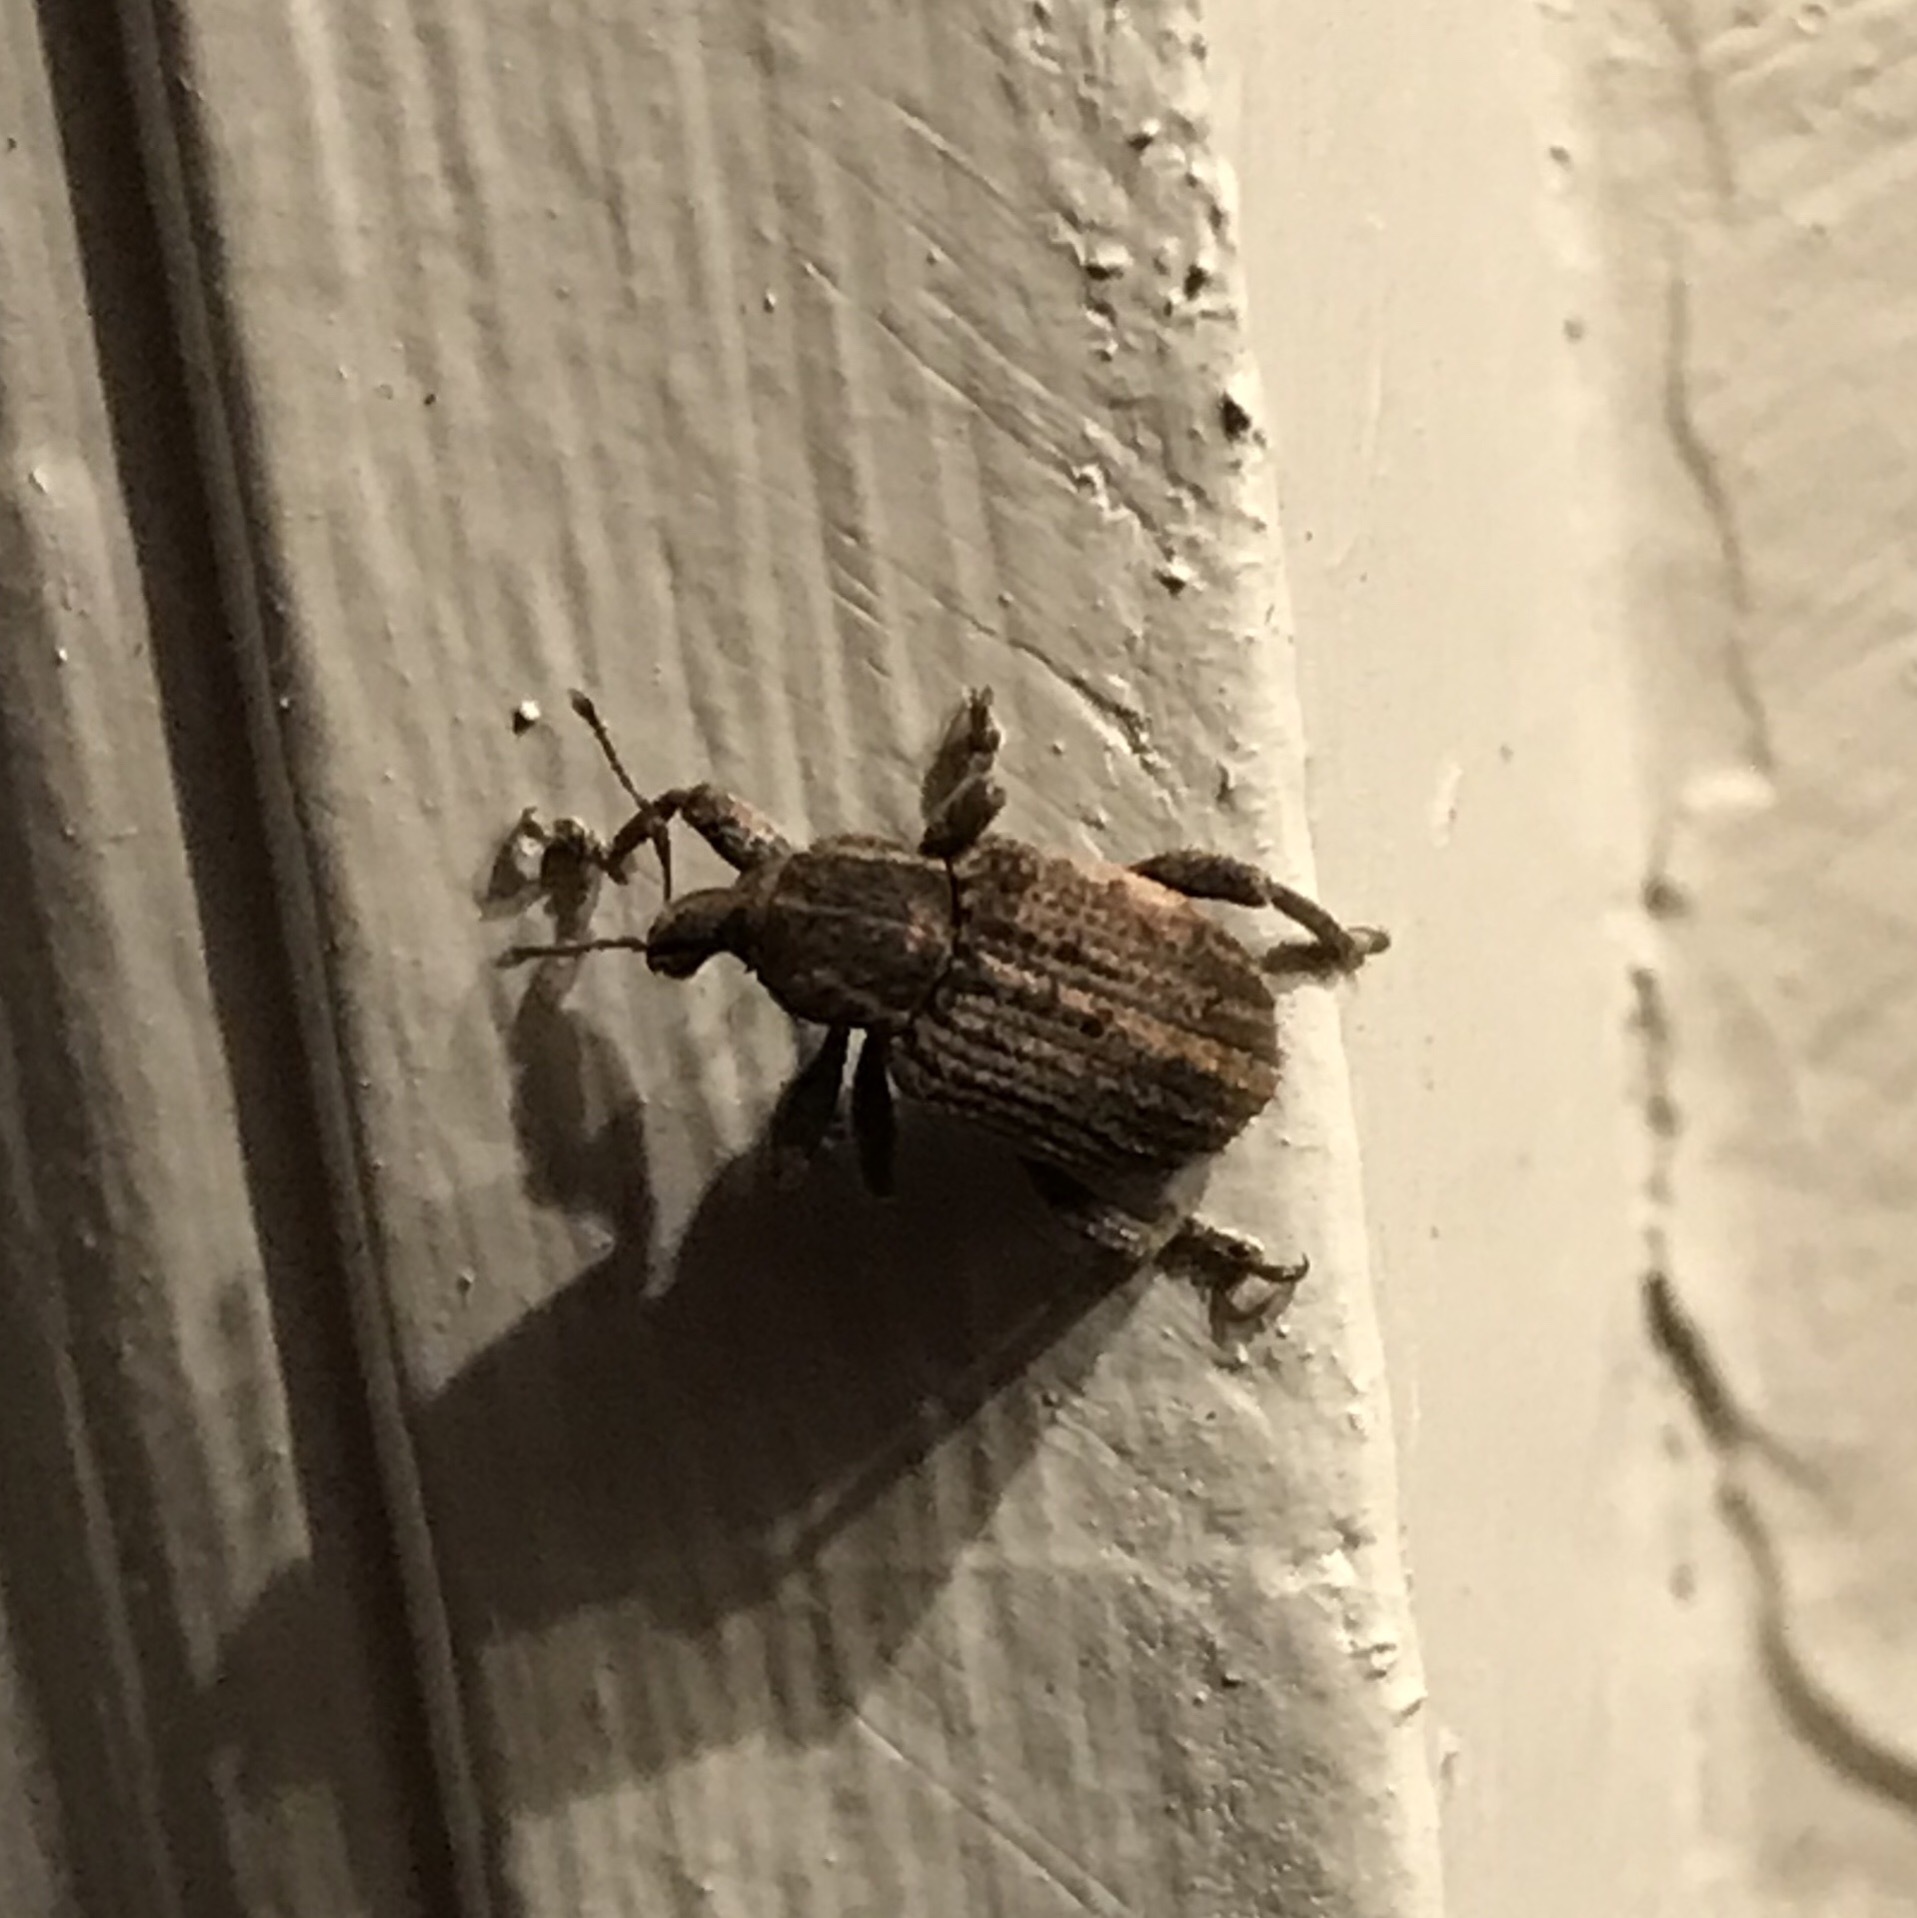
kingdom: Animalia
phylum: Arthropoda
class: Insecta
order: Coleoptera
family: Curculionidae
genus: Brachypera
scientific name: Brachypera zoilus
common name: Clover leaf weevil
